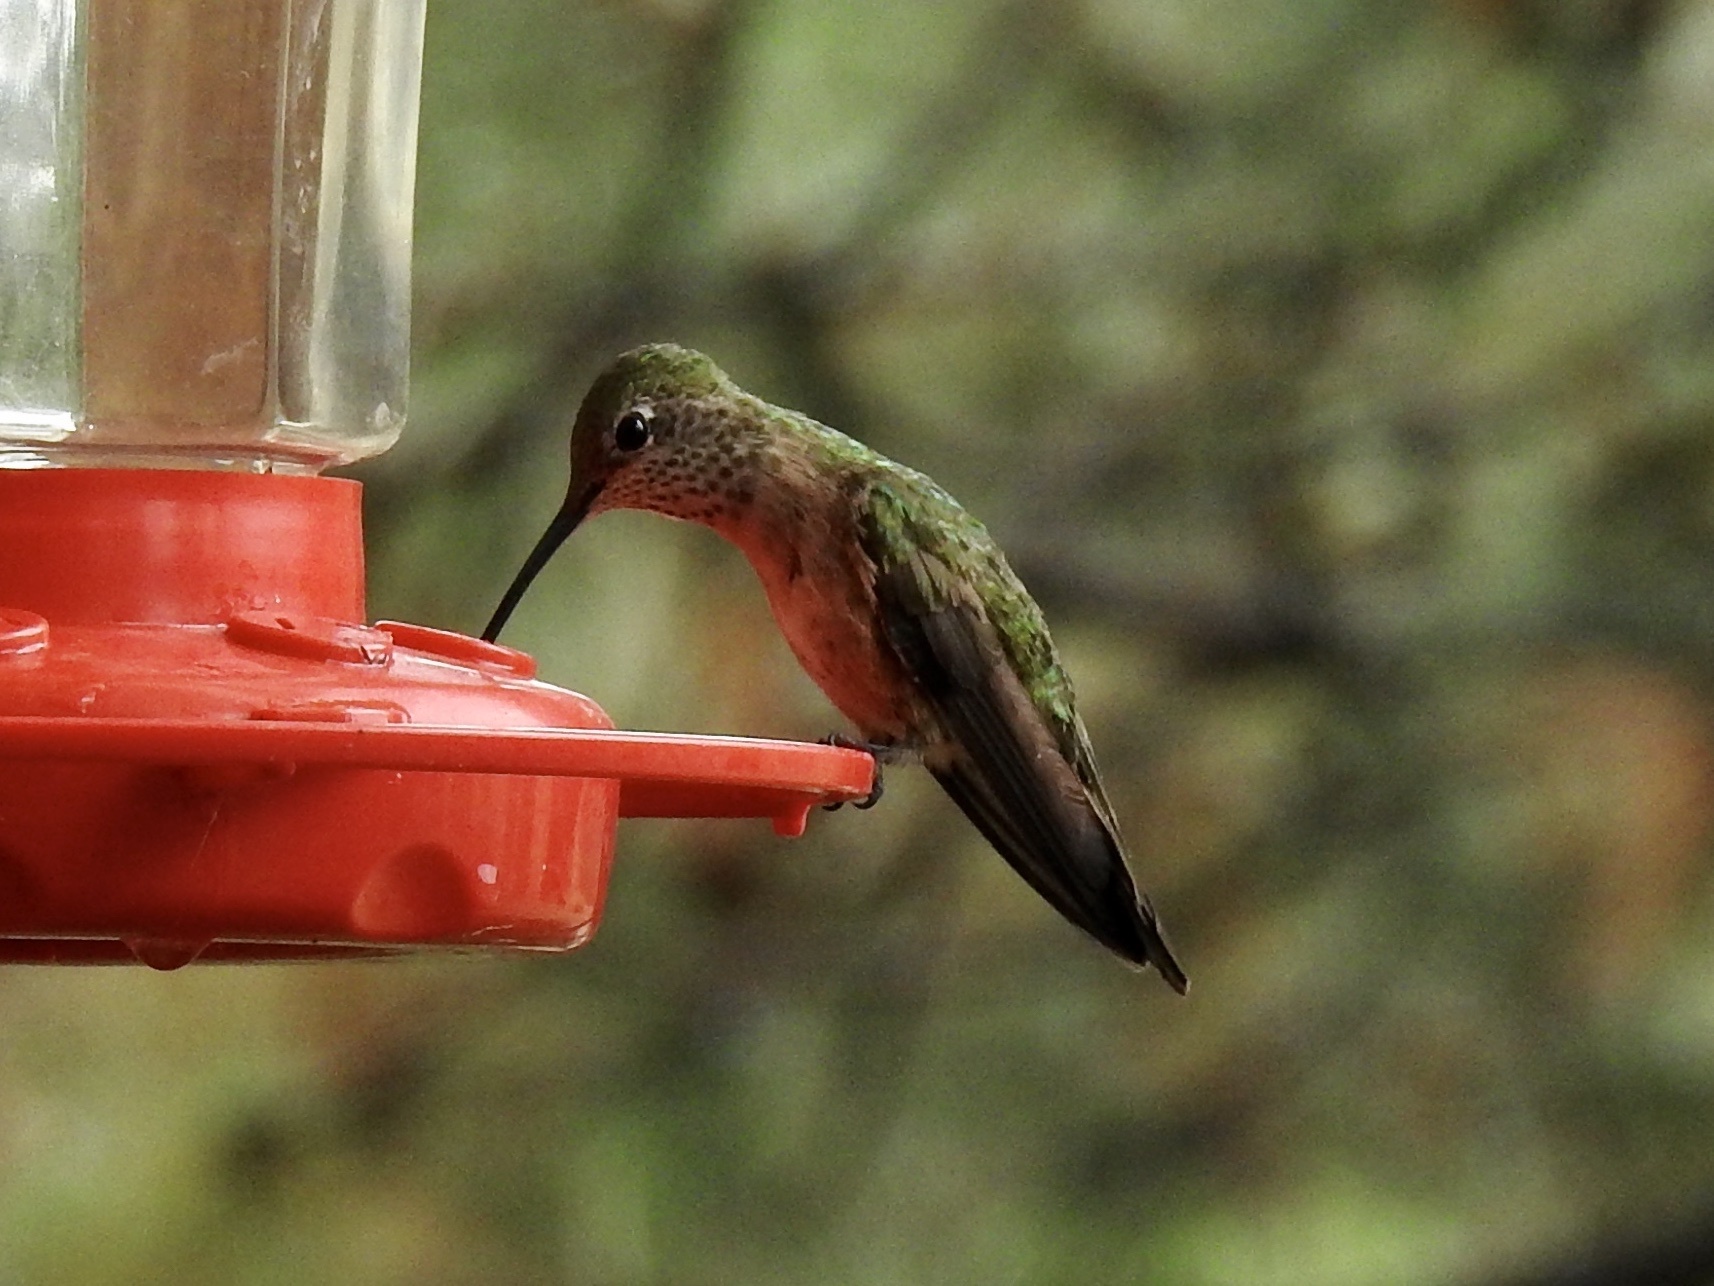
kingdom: Animalia
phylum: Chordata
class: Aves
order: Apodiformes
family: Trochilidae
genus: Selasphorus
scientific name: Selasphorus platycercus
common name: Broad-tailed hummingbird
